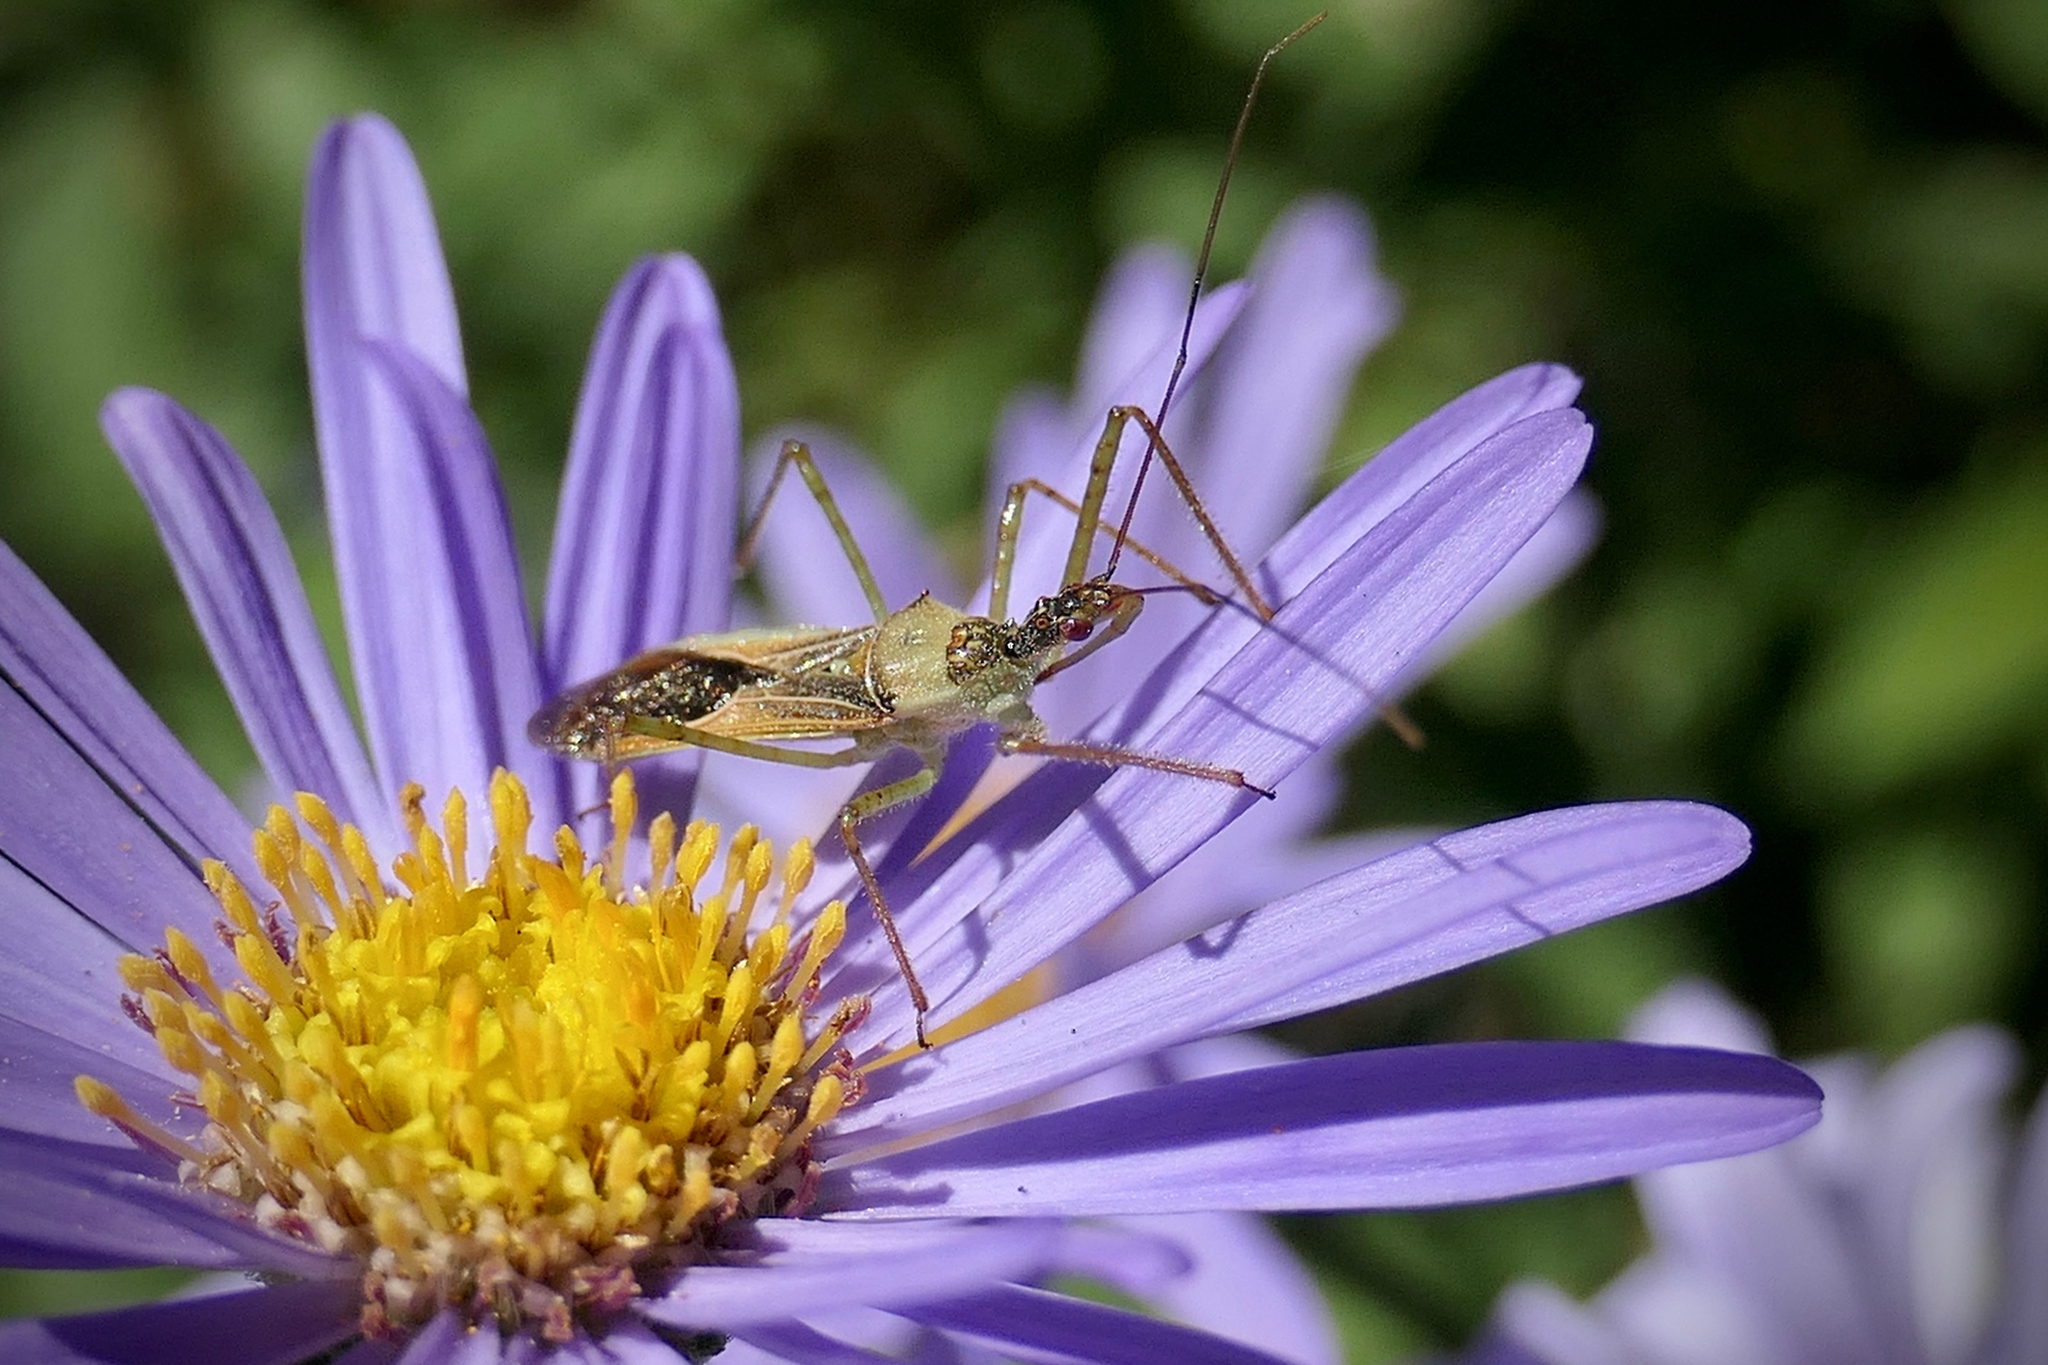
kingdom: Animalia
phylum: Arthropoda
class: Insecta
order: Hemiptera
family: Reduviidae
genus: Zelus
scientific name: Zelus renardii
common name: Assassin bug
